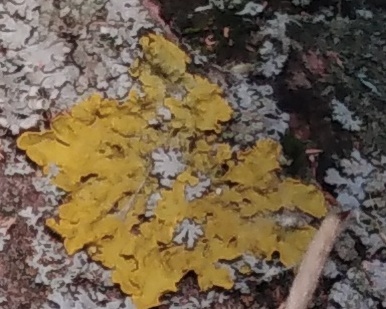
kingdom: Fungi
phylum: Ascomycota
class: Lecanoromycetes
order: Teloschistales
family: Teloschistaceae
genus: Xanthoria
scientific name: Xanthoria parietina
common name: Common orange lichen
